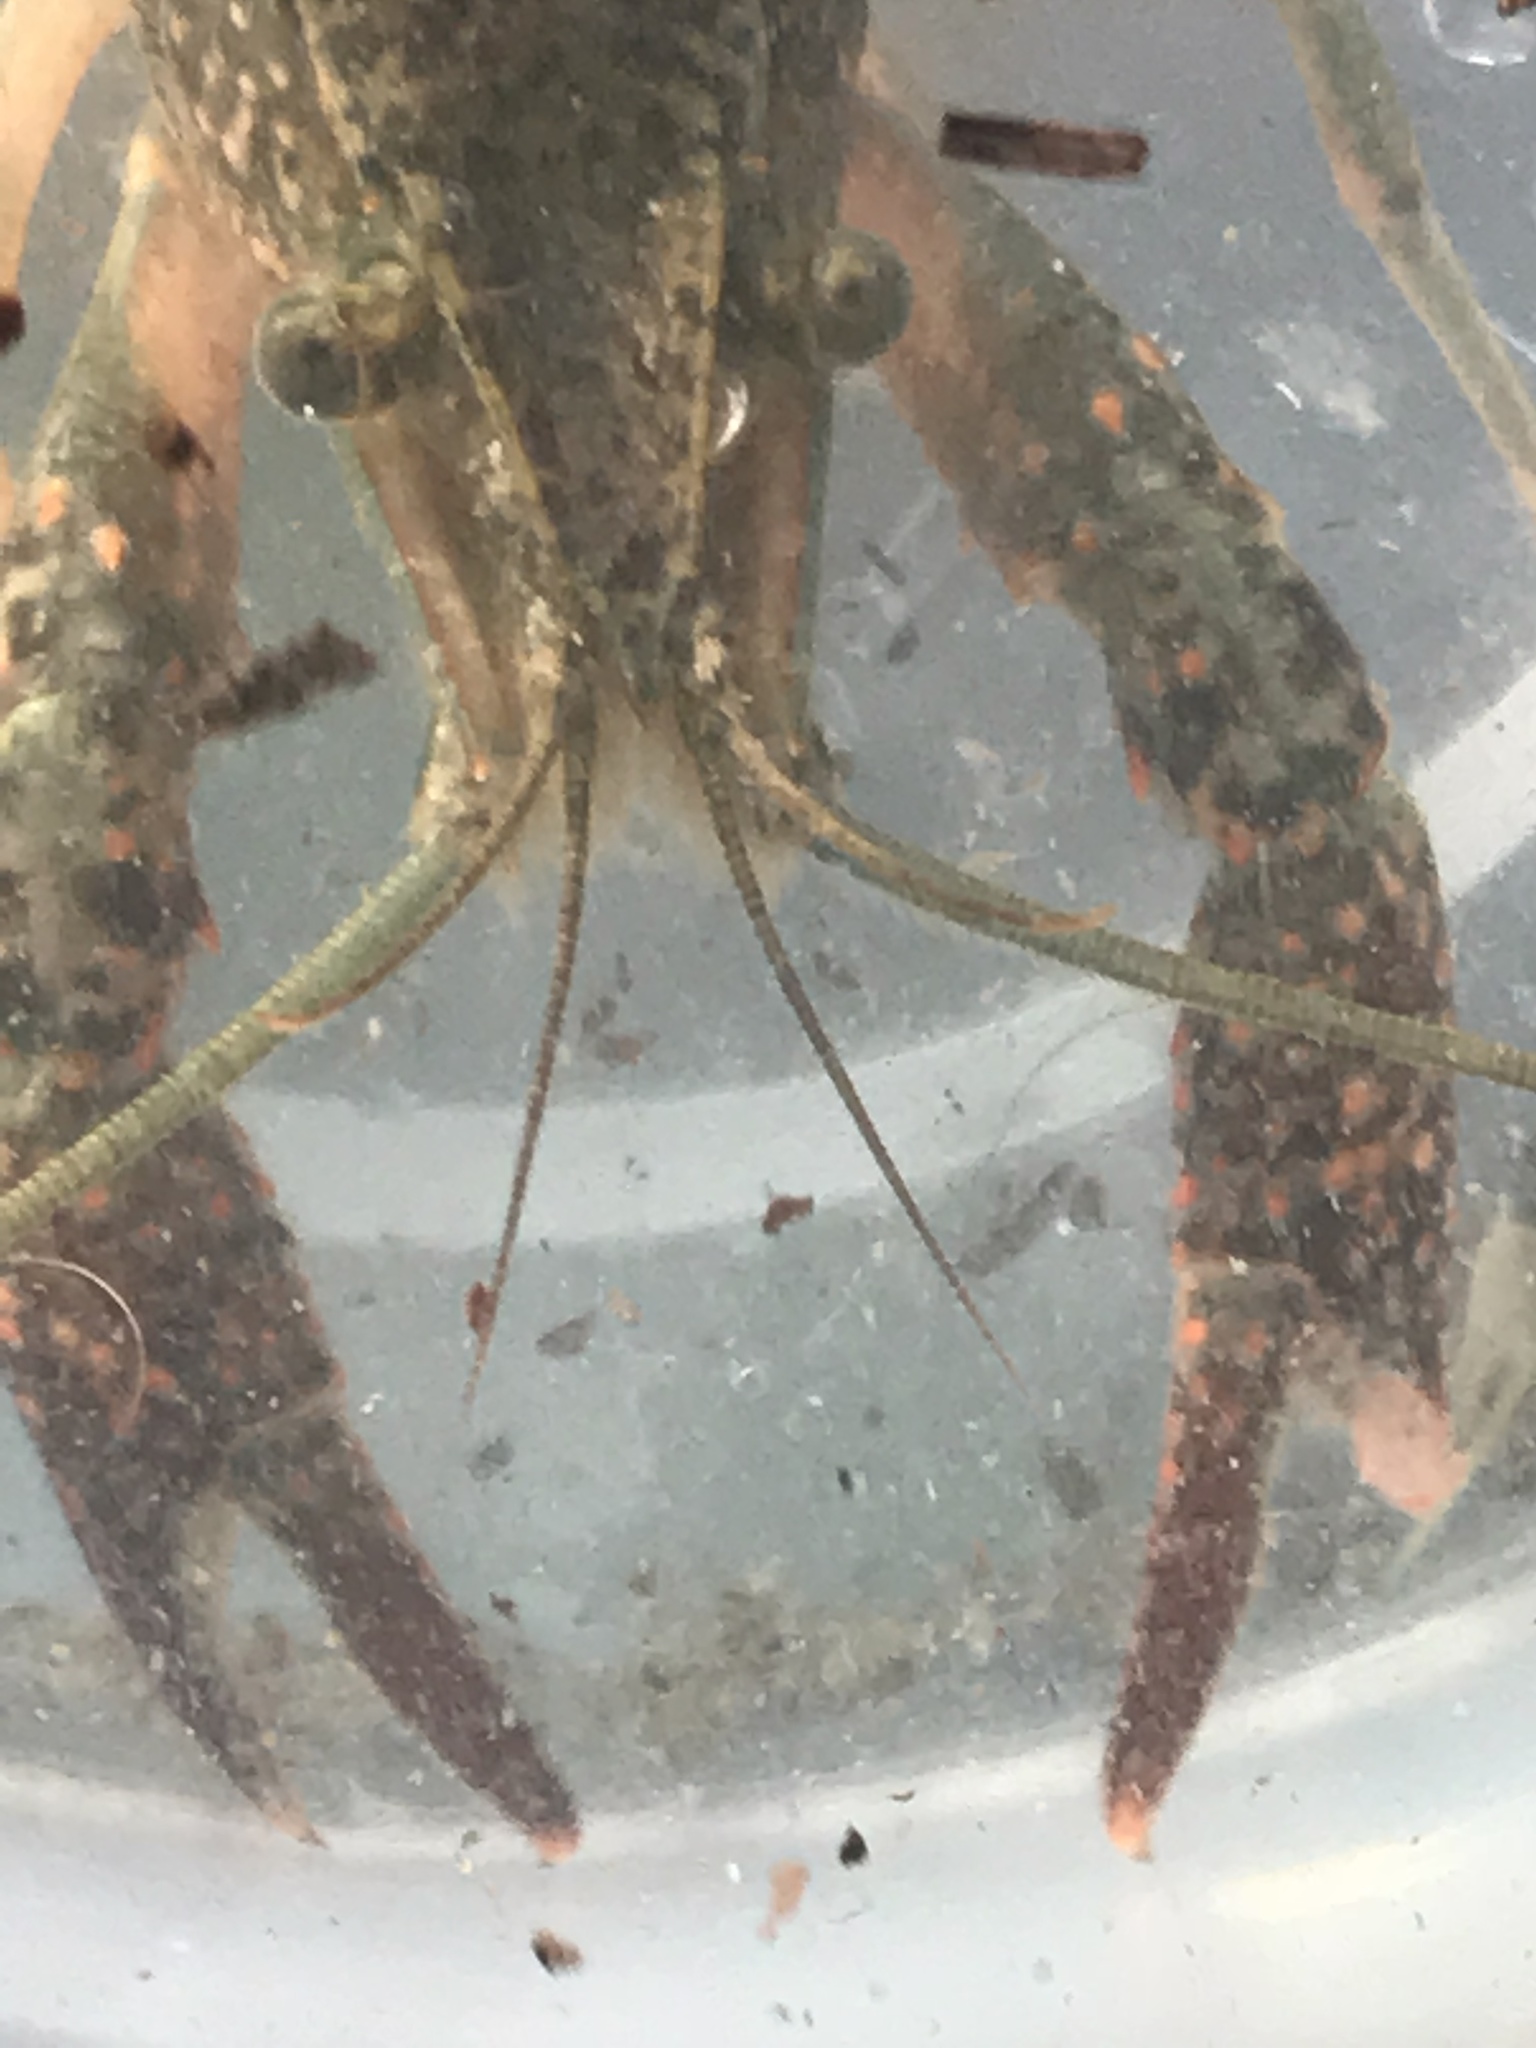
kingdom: Animalia
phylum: Arthropoda
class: Malacostraca
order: Decapoda
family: Cambaridae
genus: Procambarus
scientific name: Procambarus clarkii
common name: Red swamp crayfish
